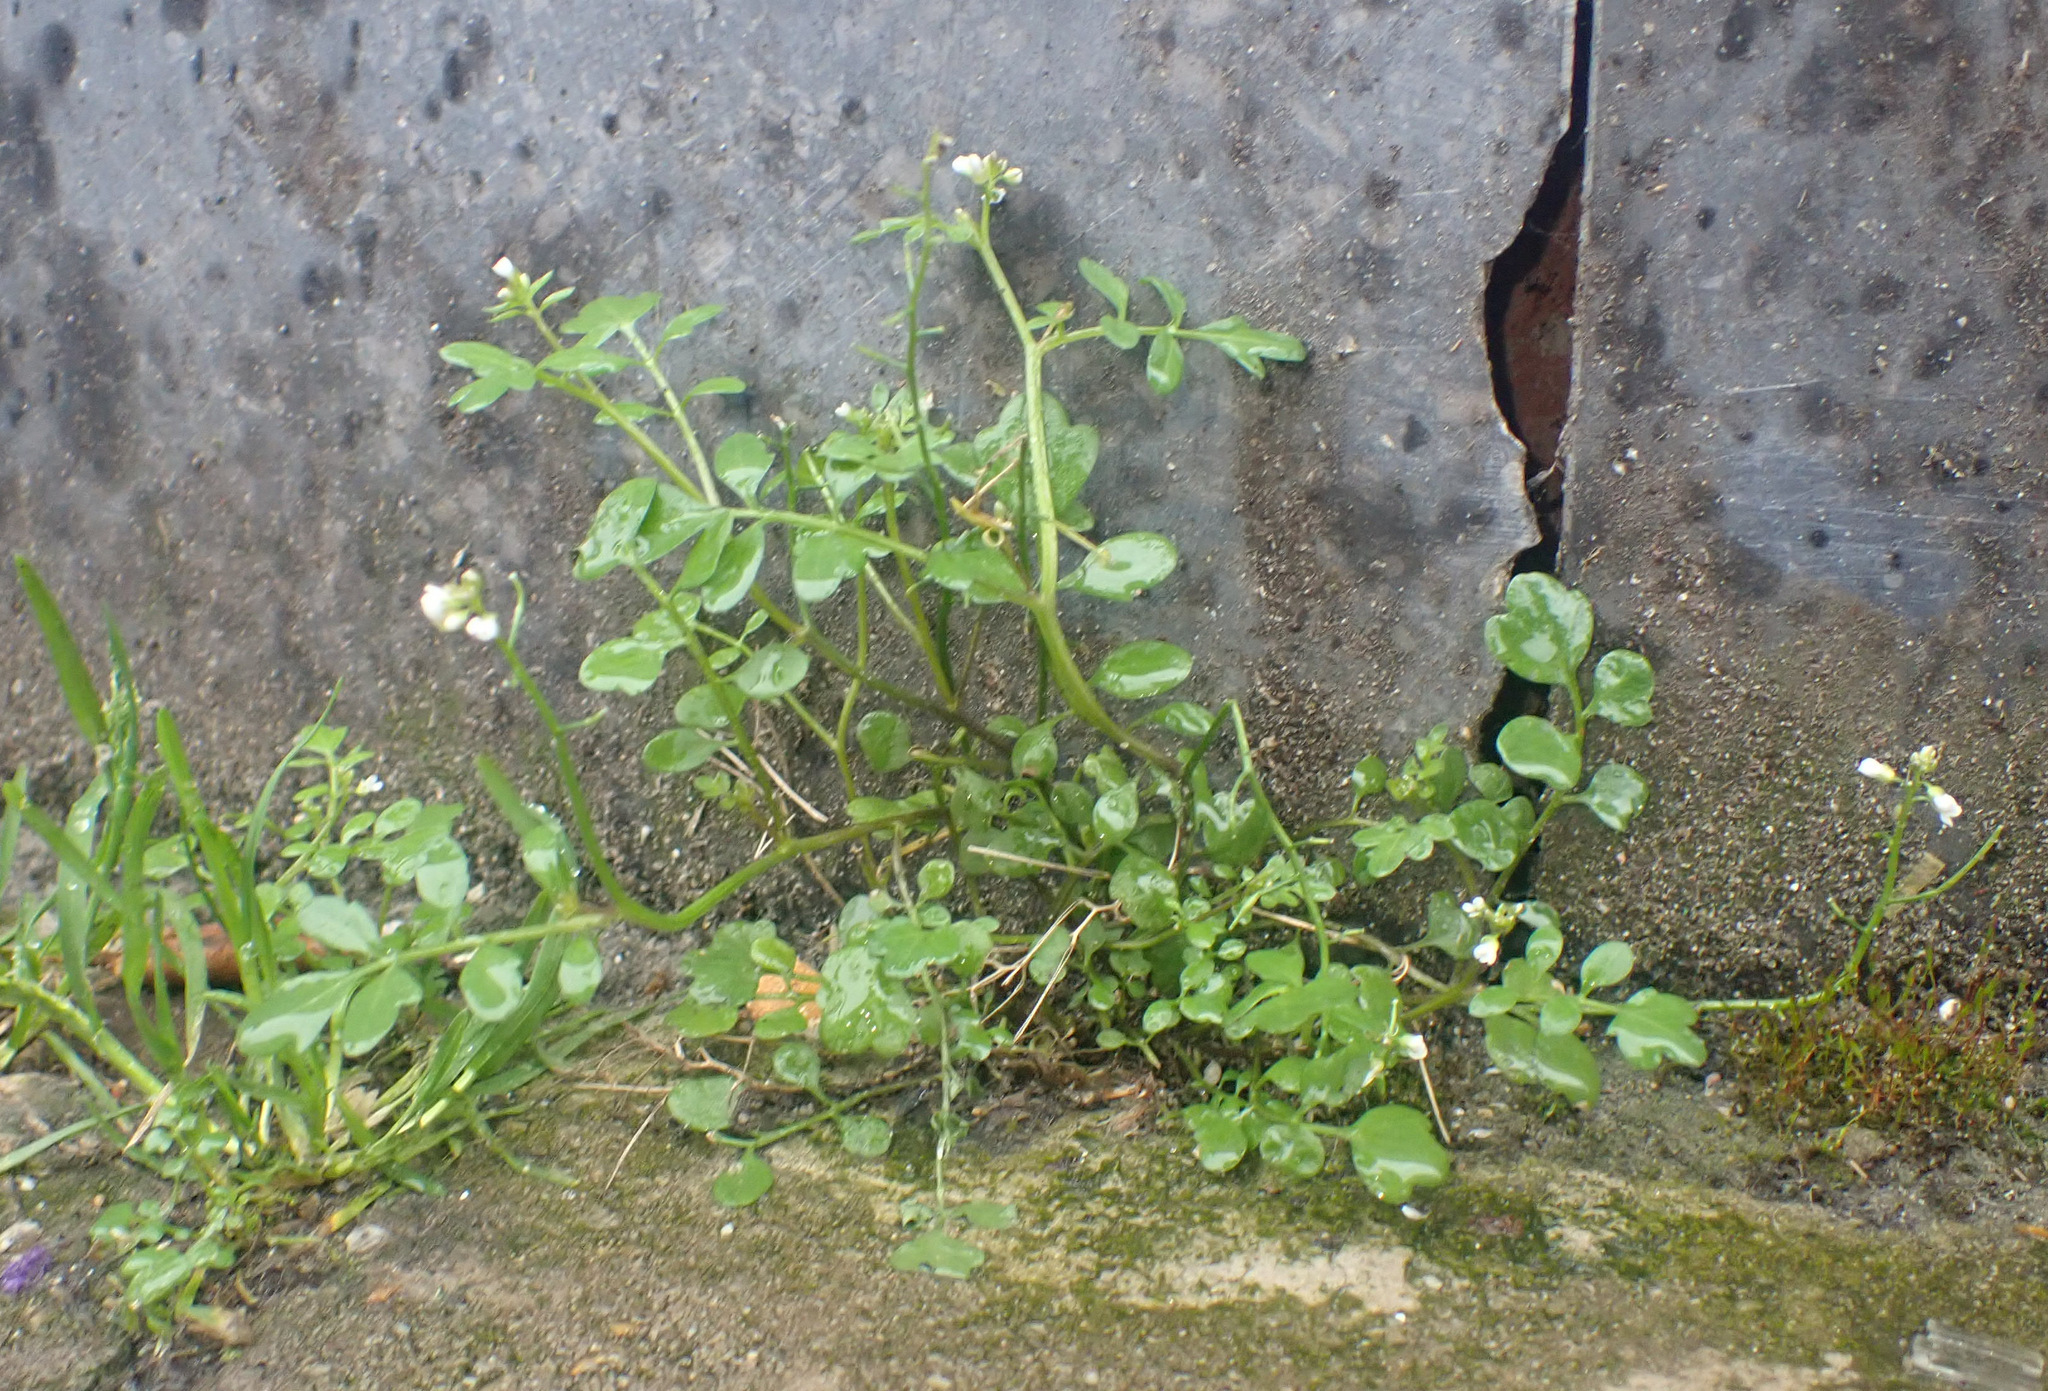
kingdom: Plantae
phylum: Tracheophyta
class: Magnoliopsida
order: Brassicales
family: Brassicaceae
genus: Cardamine
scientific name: Cardamine occulta
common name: Asian wavy bittercress
